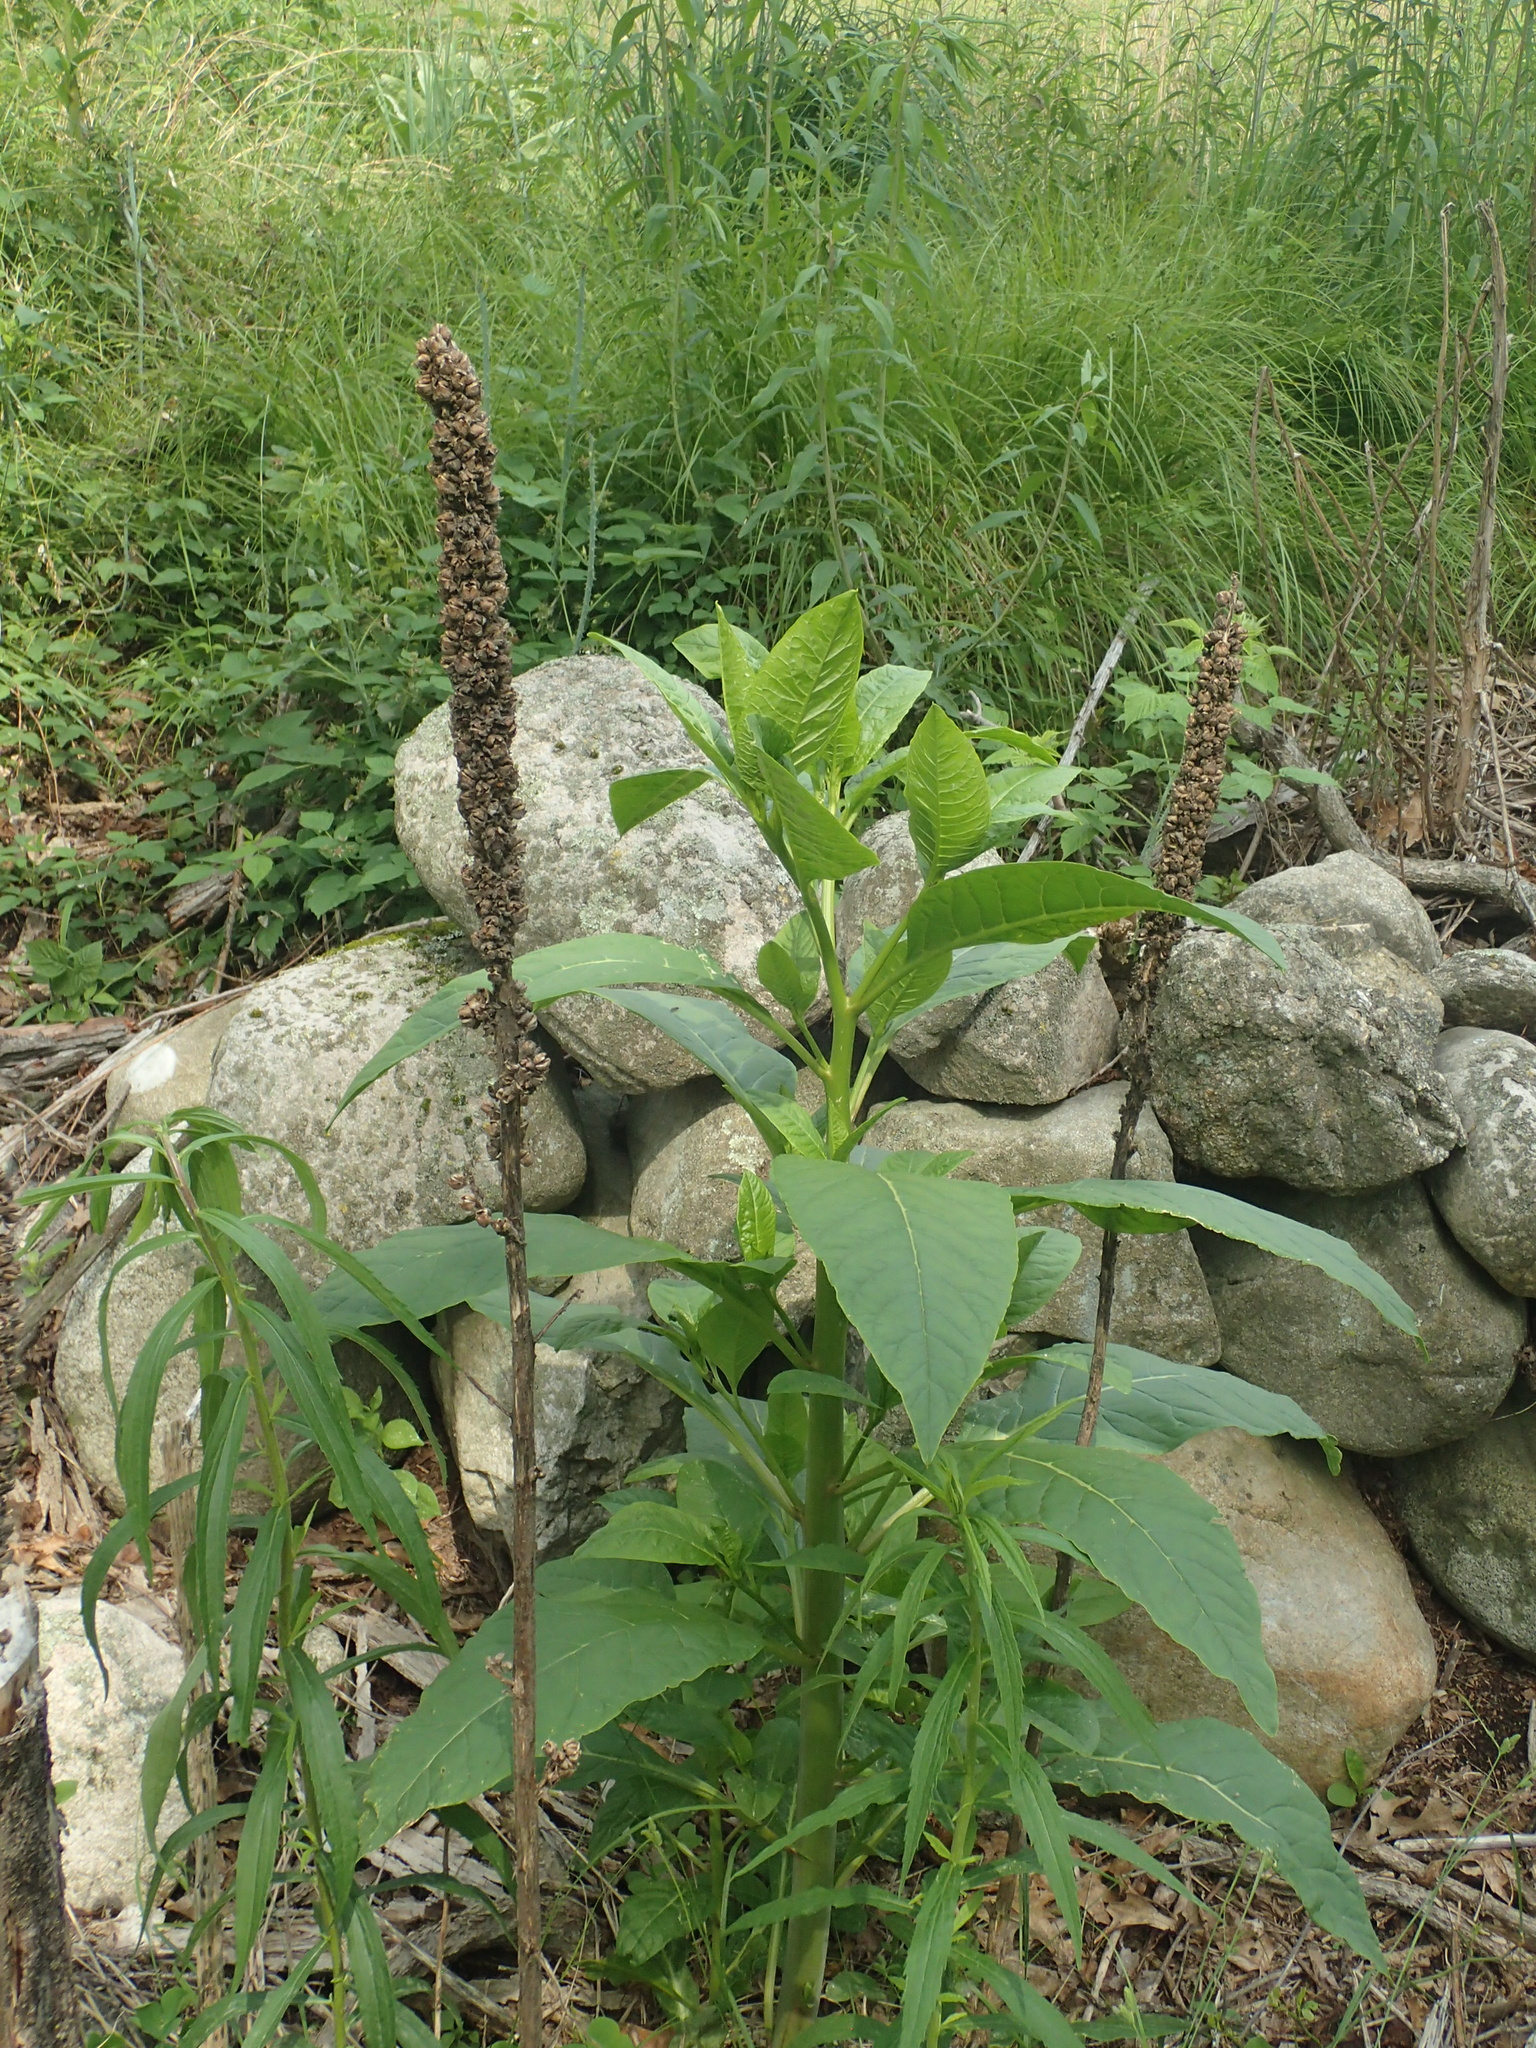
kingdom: Plantae
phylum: Tracheophyta
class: Magnoliopsida
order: Caryophyllales
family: Phytolaccaceae
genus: Phytolacca
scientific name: Phytolacca americana
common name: American pokeweed
